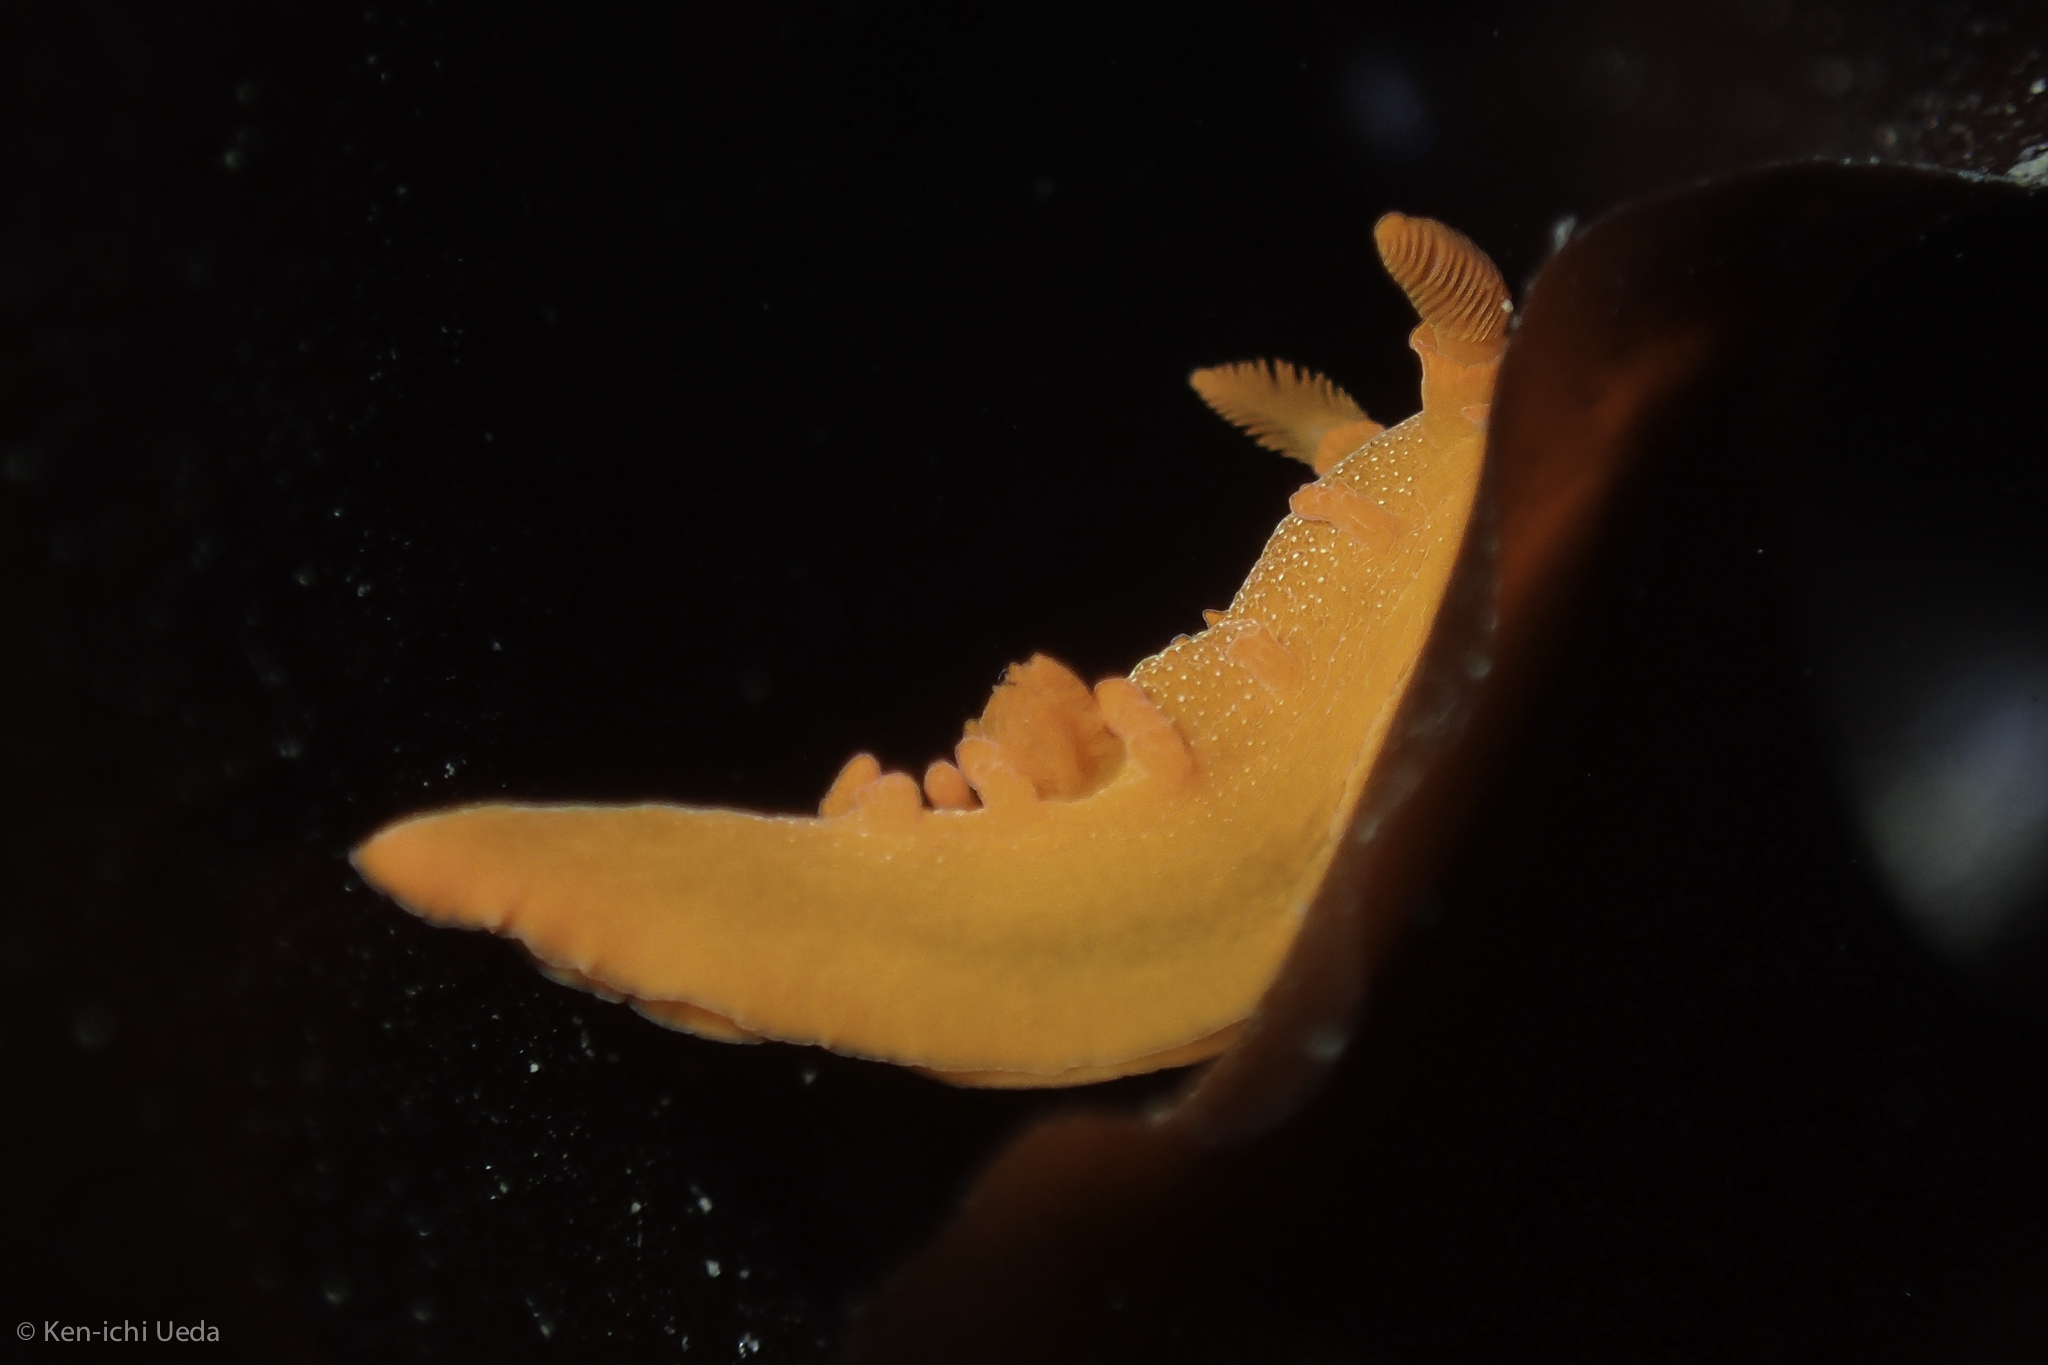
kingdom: Animalia
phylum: Mollusca
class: Gastropoda
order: Nudibranchia
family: Polyceridae
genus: Triopha
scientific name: Triopha maculata
